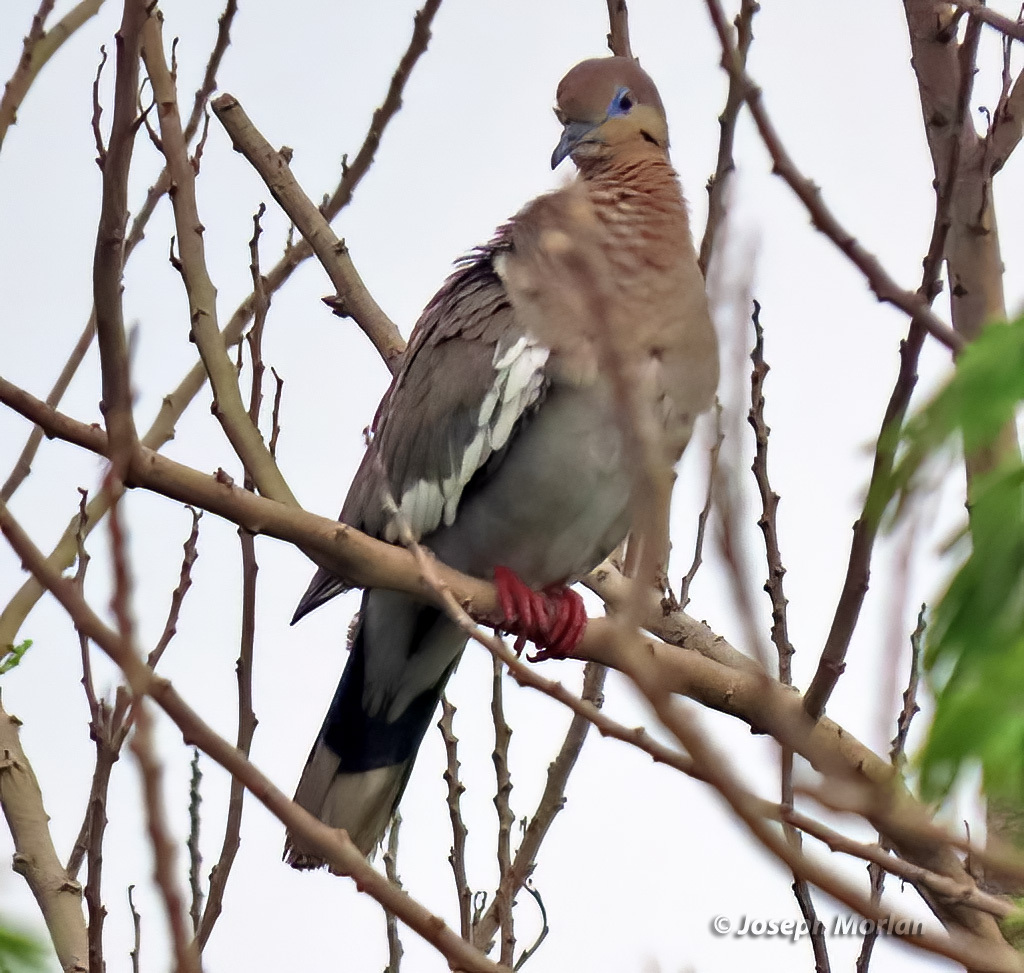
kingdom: Animalia
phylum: Chordata
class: Aves
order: Columbiformes
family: Columbidae
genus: Zenaida
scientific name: Zenaida asiatica
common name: White-winged dove
